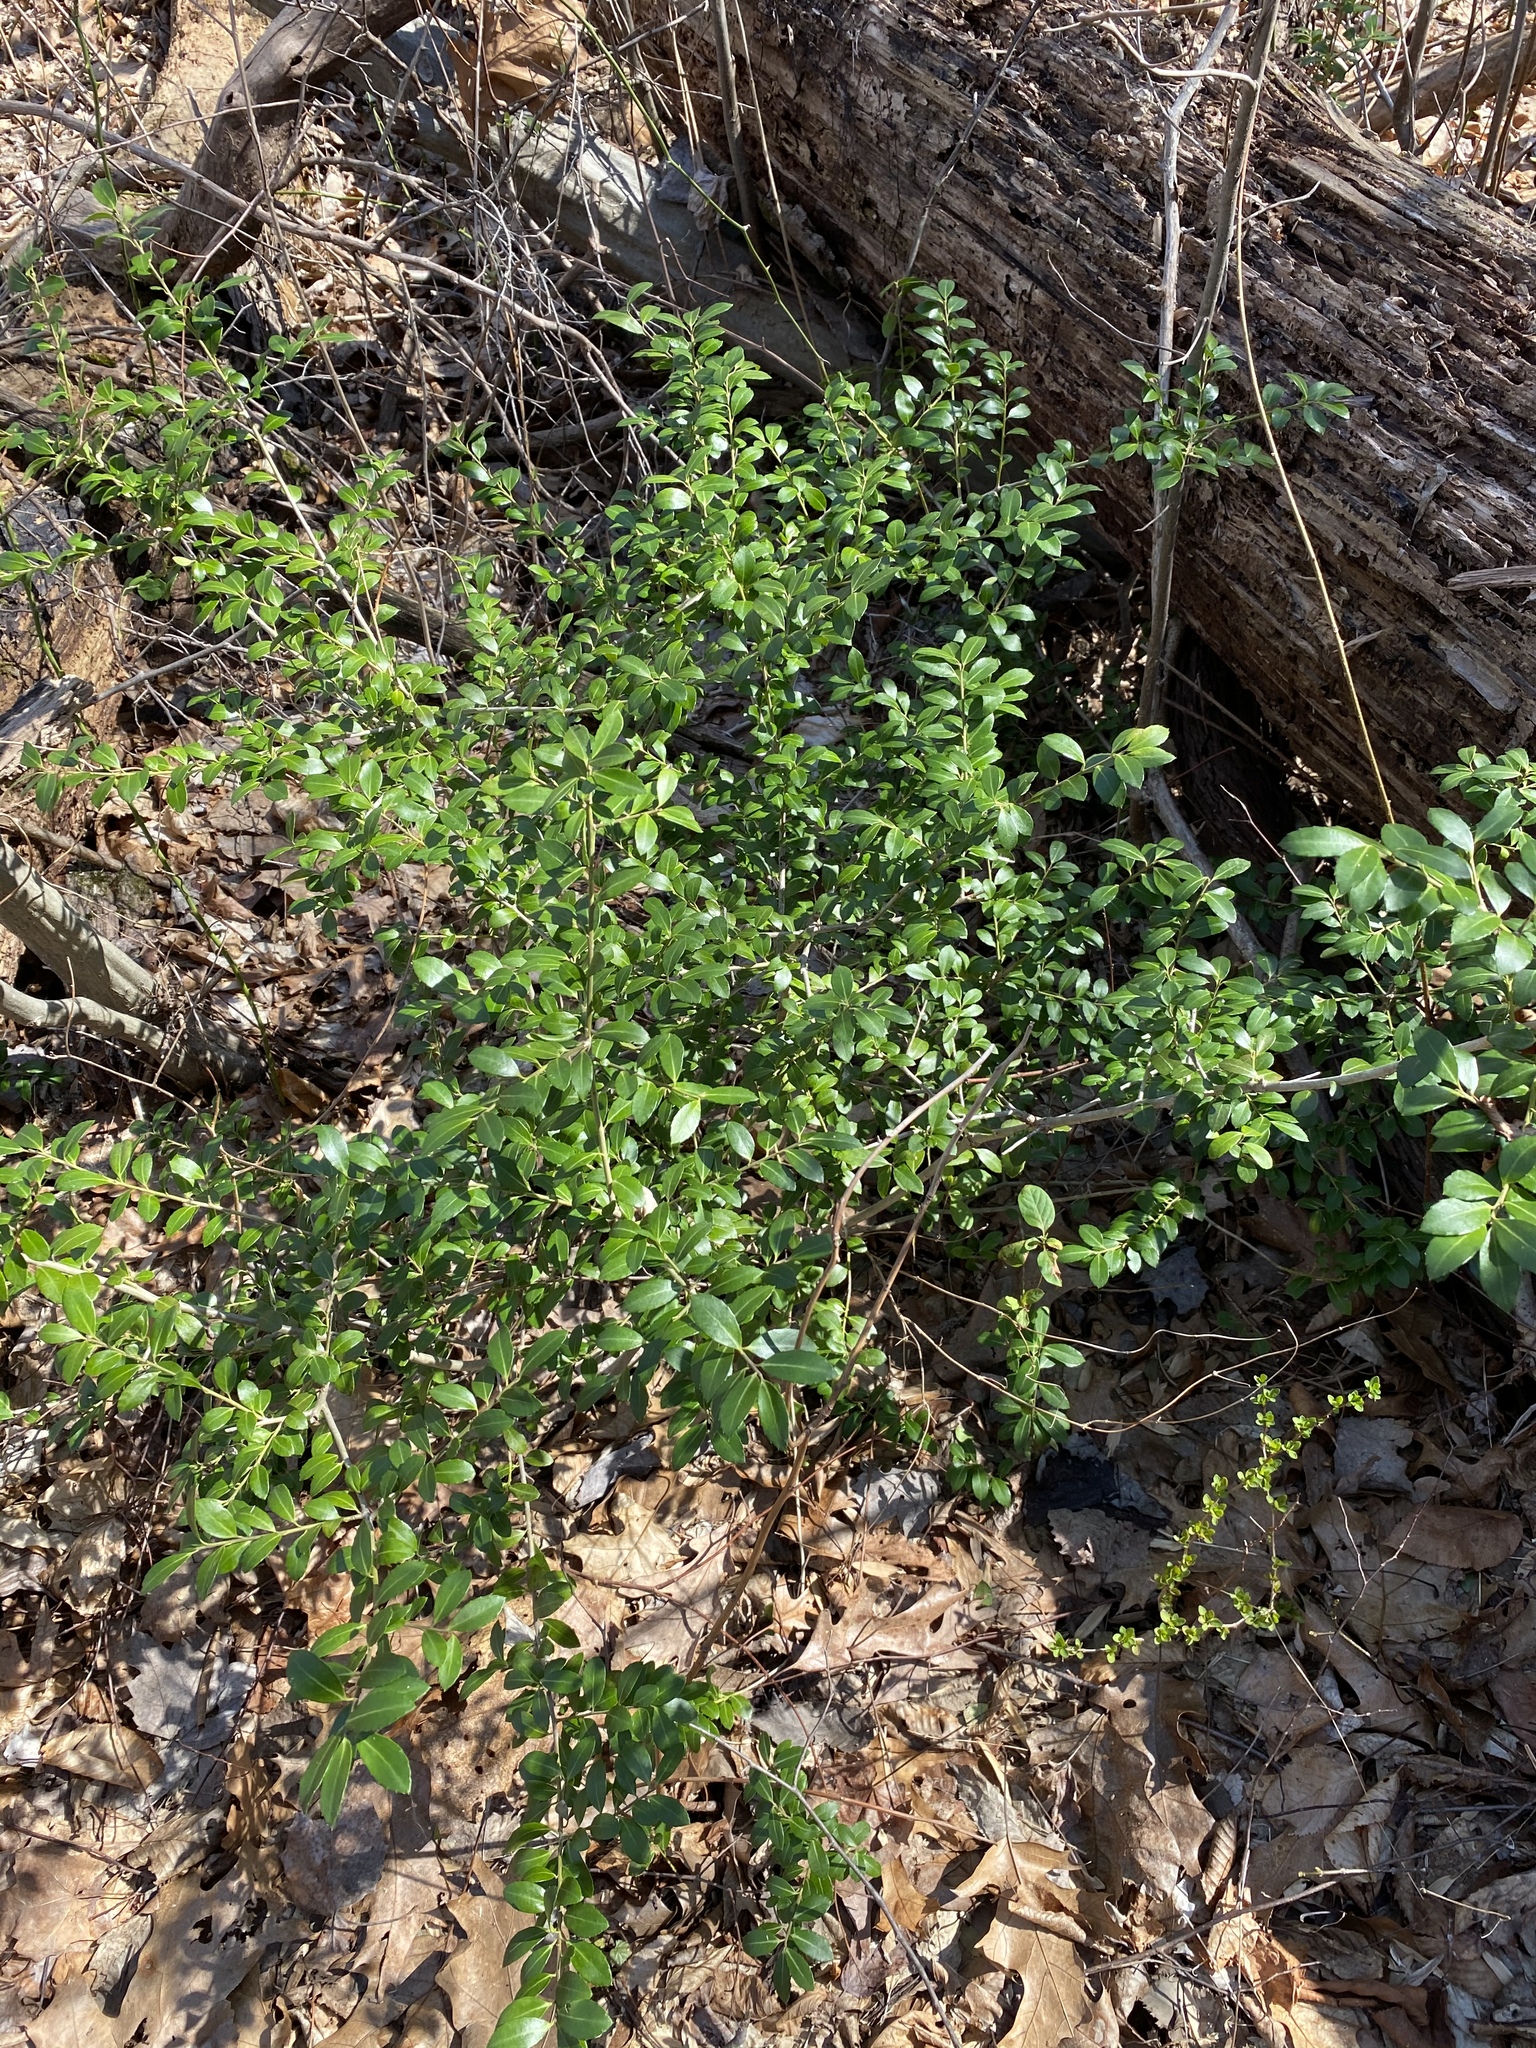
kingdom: Plantae
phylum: Tracheophyta
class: Magnoliopsida
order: Aquifoliales
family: Aquifoliaceae
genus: Ilex
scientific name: Ilex crenata
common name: Japanese holly
